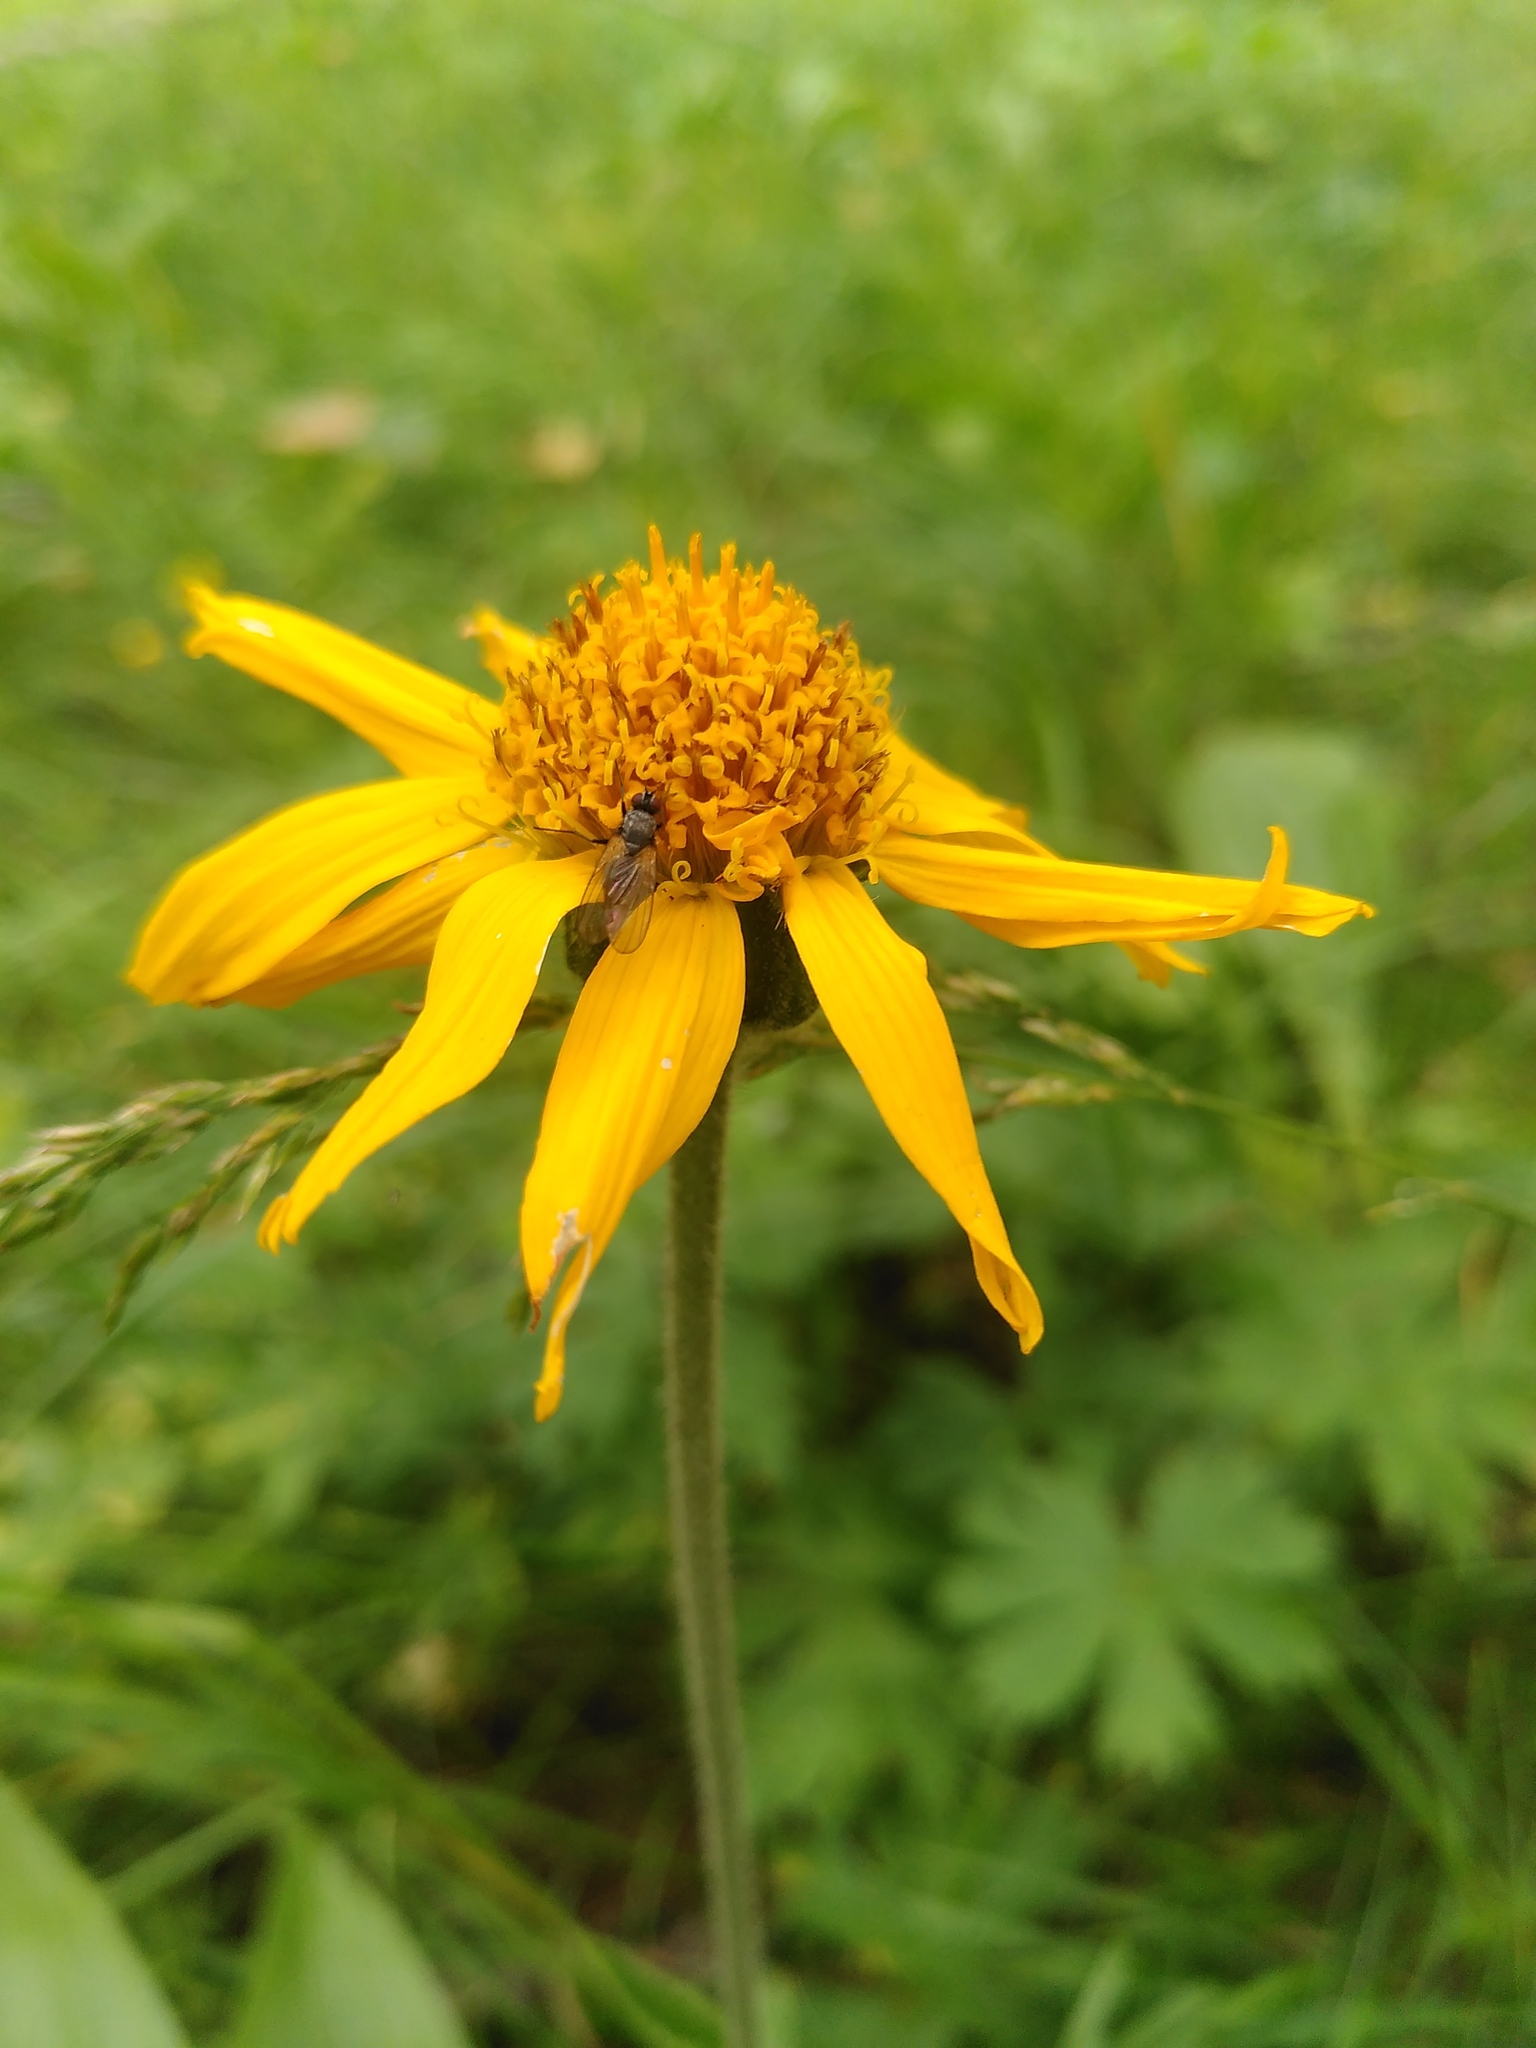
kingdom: Plantae
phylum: Tracheophyta
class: Magnoliopsida
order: Asterales
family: Asteraceae
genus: Arnica
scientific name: Arnica montana
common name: Leopard's bane
